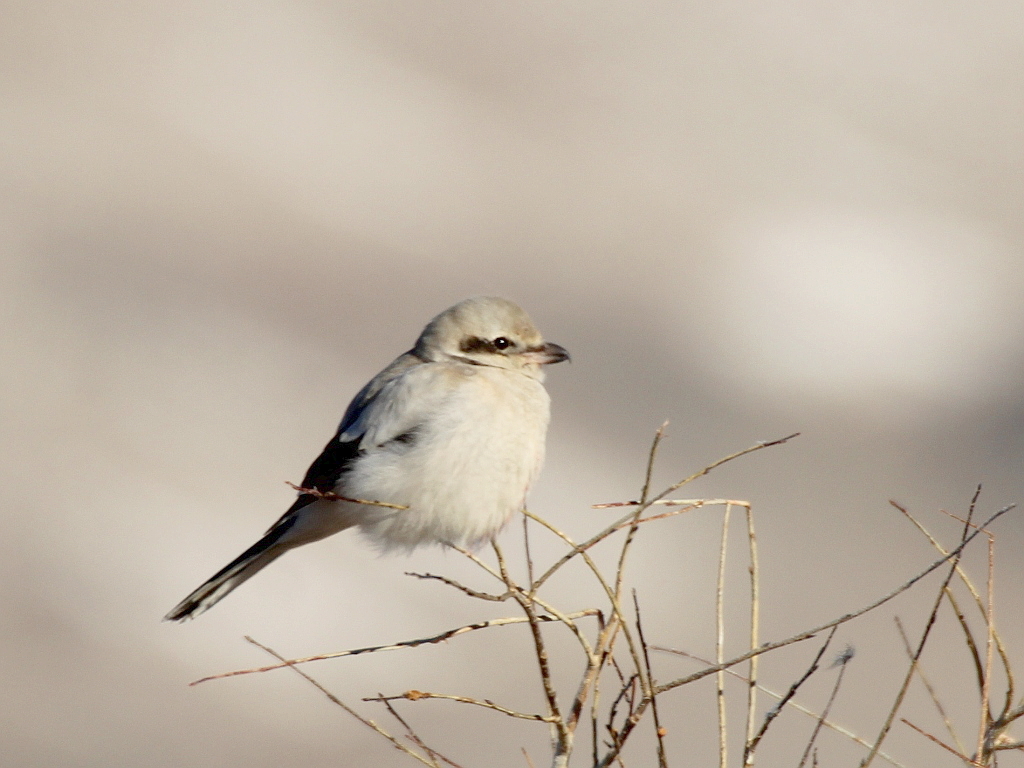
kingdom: Animalia
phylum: Chordata
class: Aves
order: Passeriformes
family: Laniidae
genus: Lanius
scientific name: Lanius borealis
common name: Northern shrike
